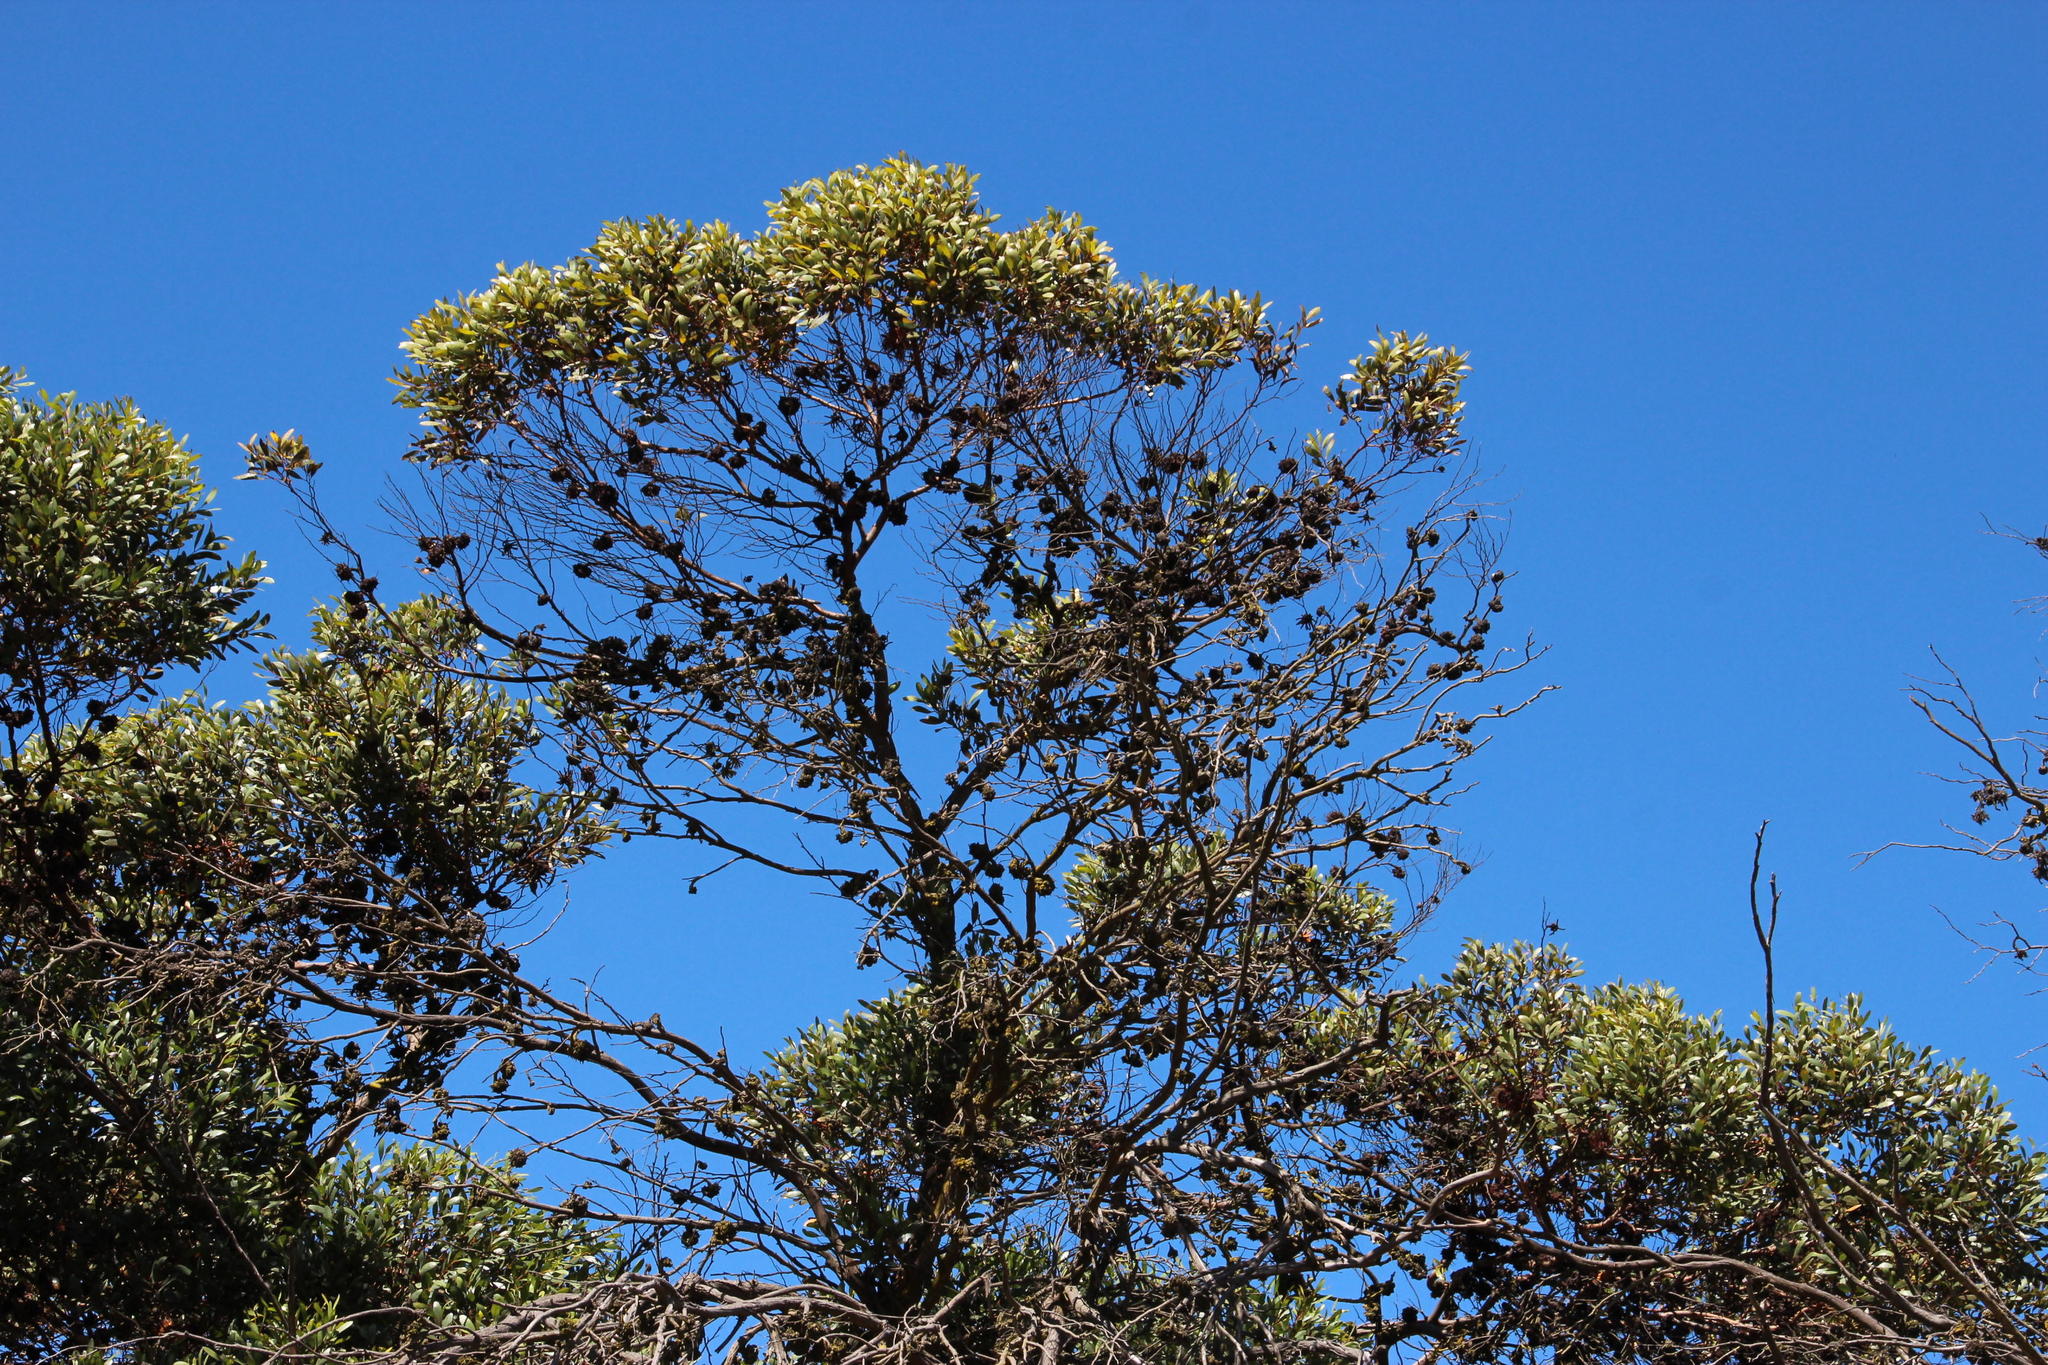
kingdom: Plantae
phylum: Tracheophyta
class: Magnoliopsida
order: Myrtales
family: Myrtaceae
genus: Eucalyptus
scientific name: Eucalyptus conferruminata
